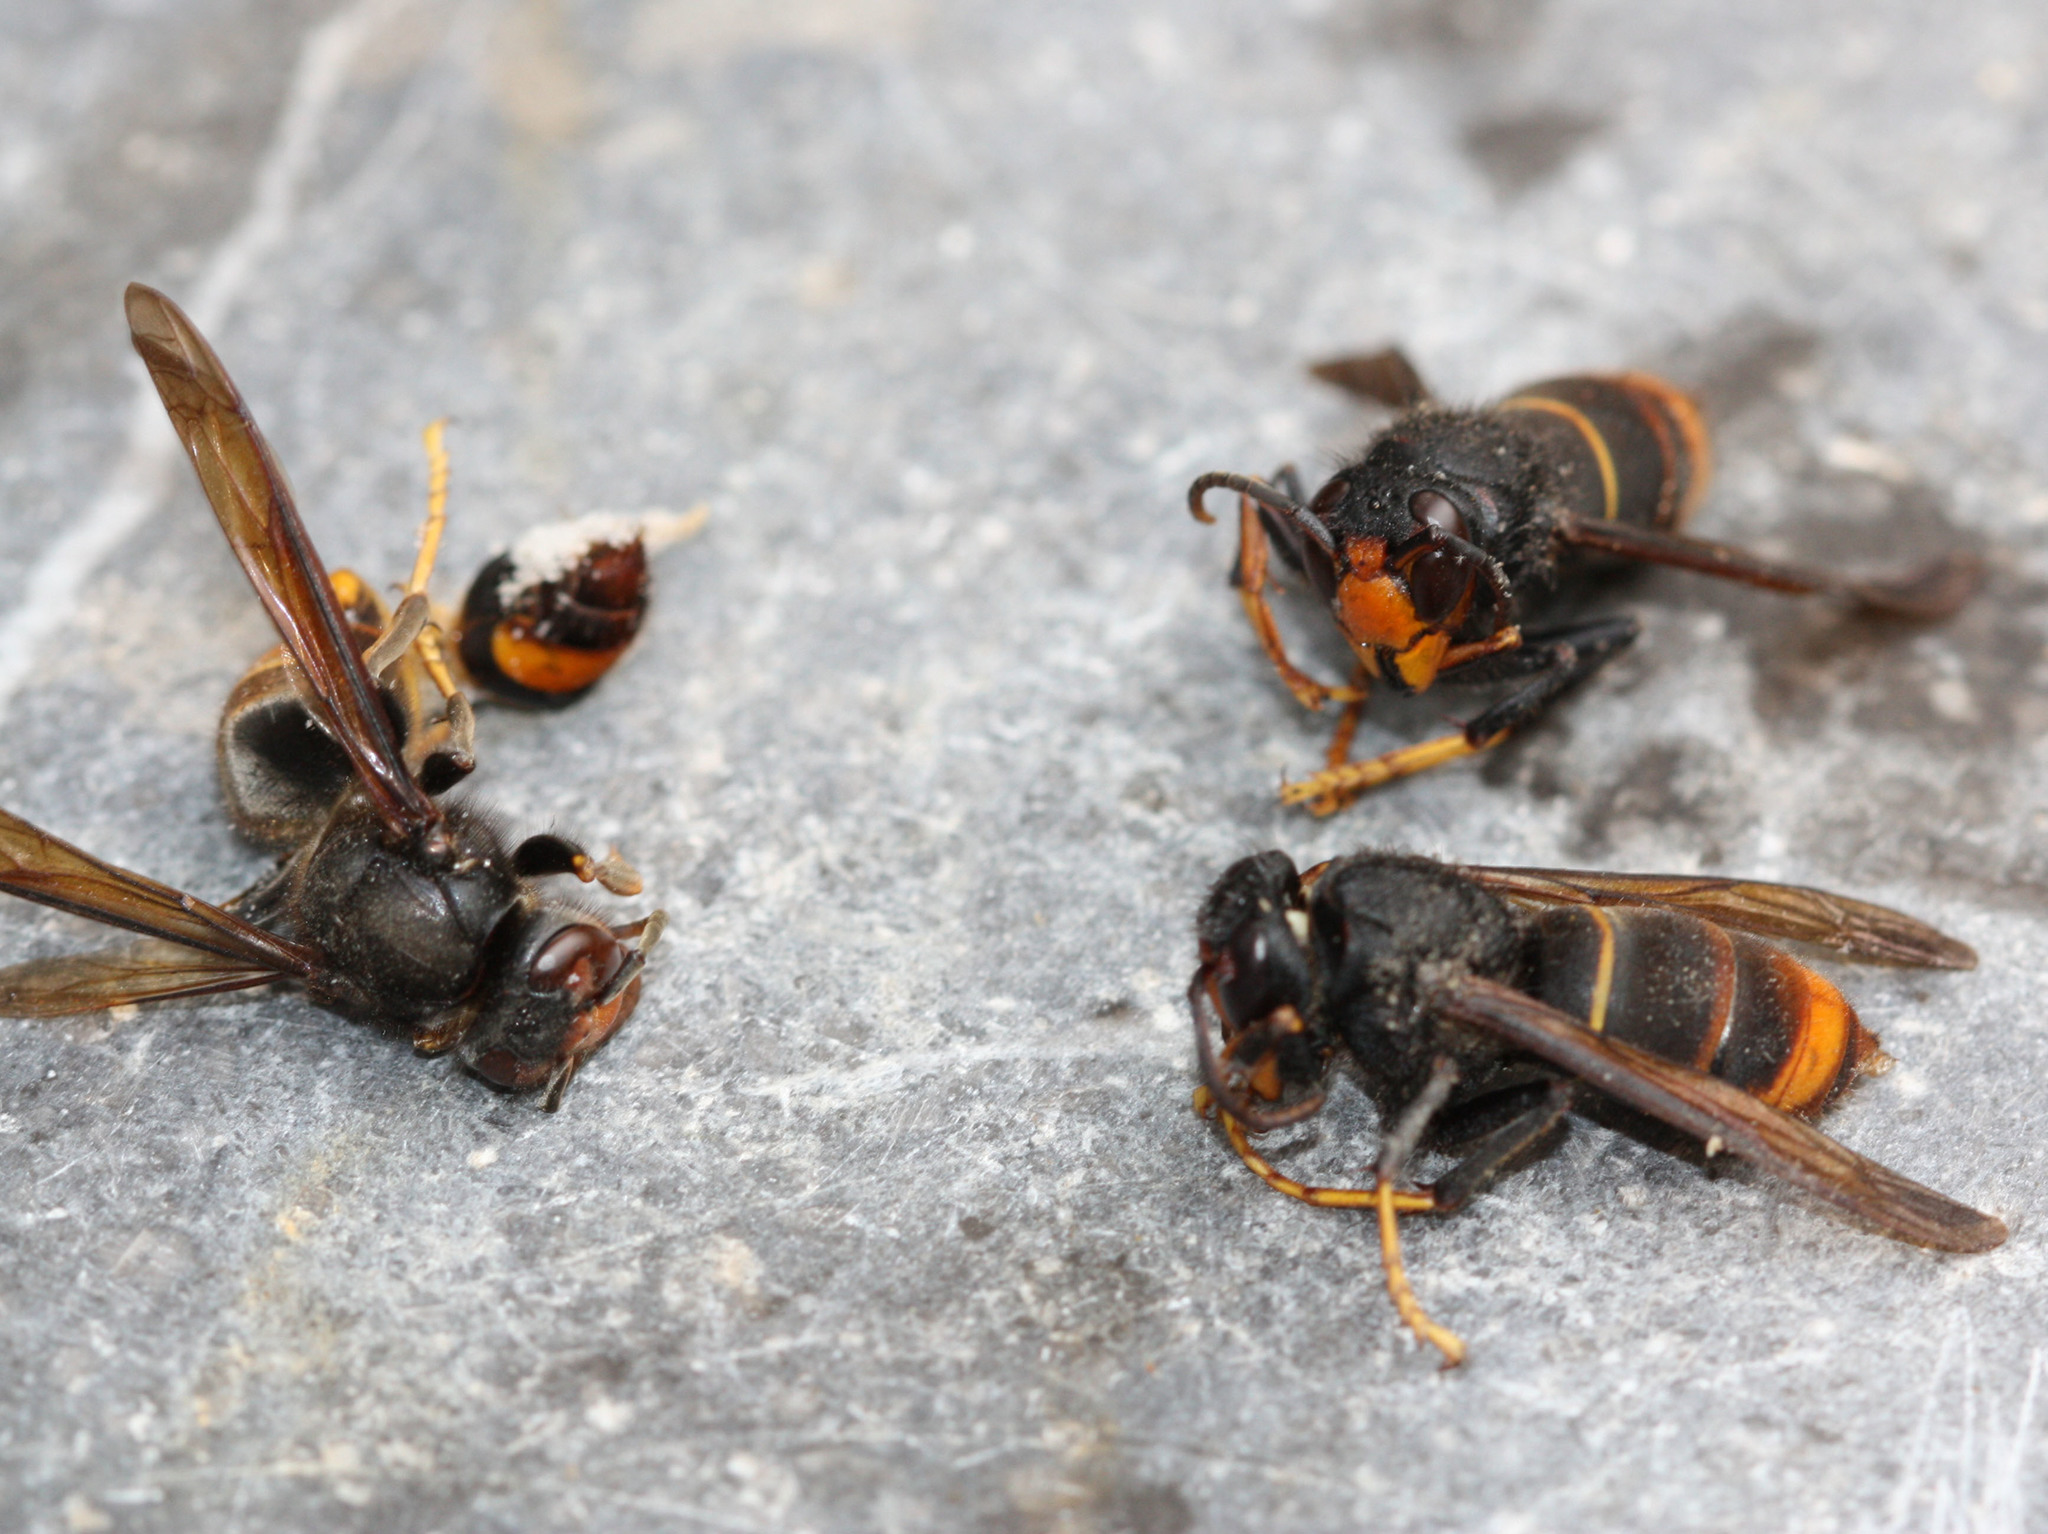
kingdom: Animalia
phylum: Arthropoda
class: Insecta
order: Hymenoptera
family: Vespidae
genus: Vespa
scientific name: Vespa velutina
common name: Asian hornet
